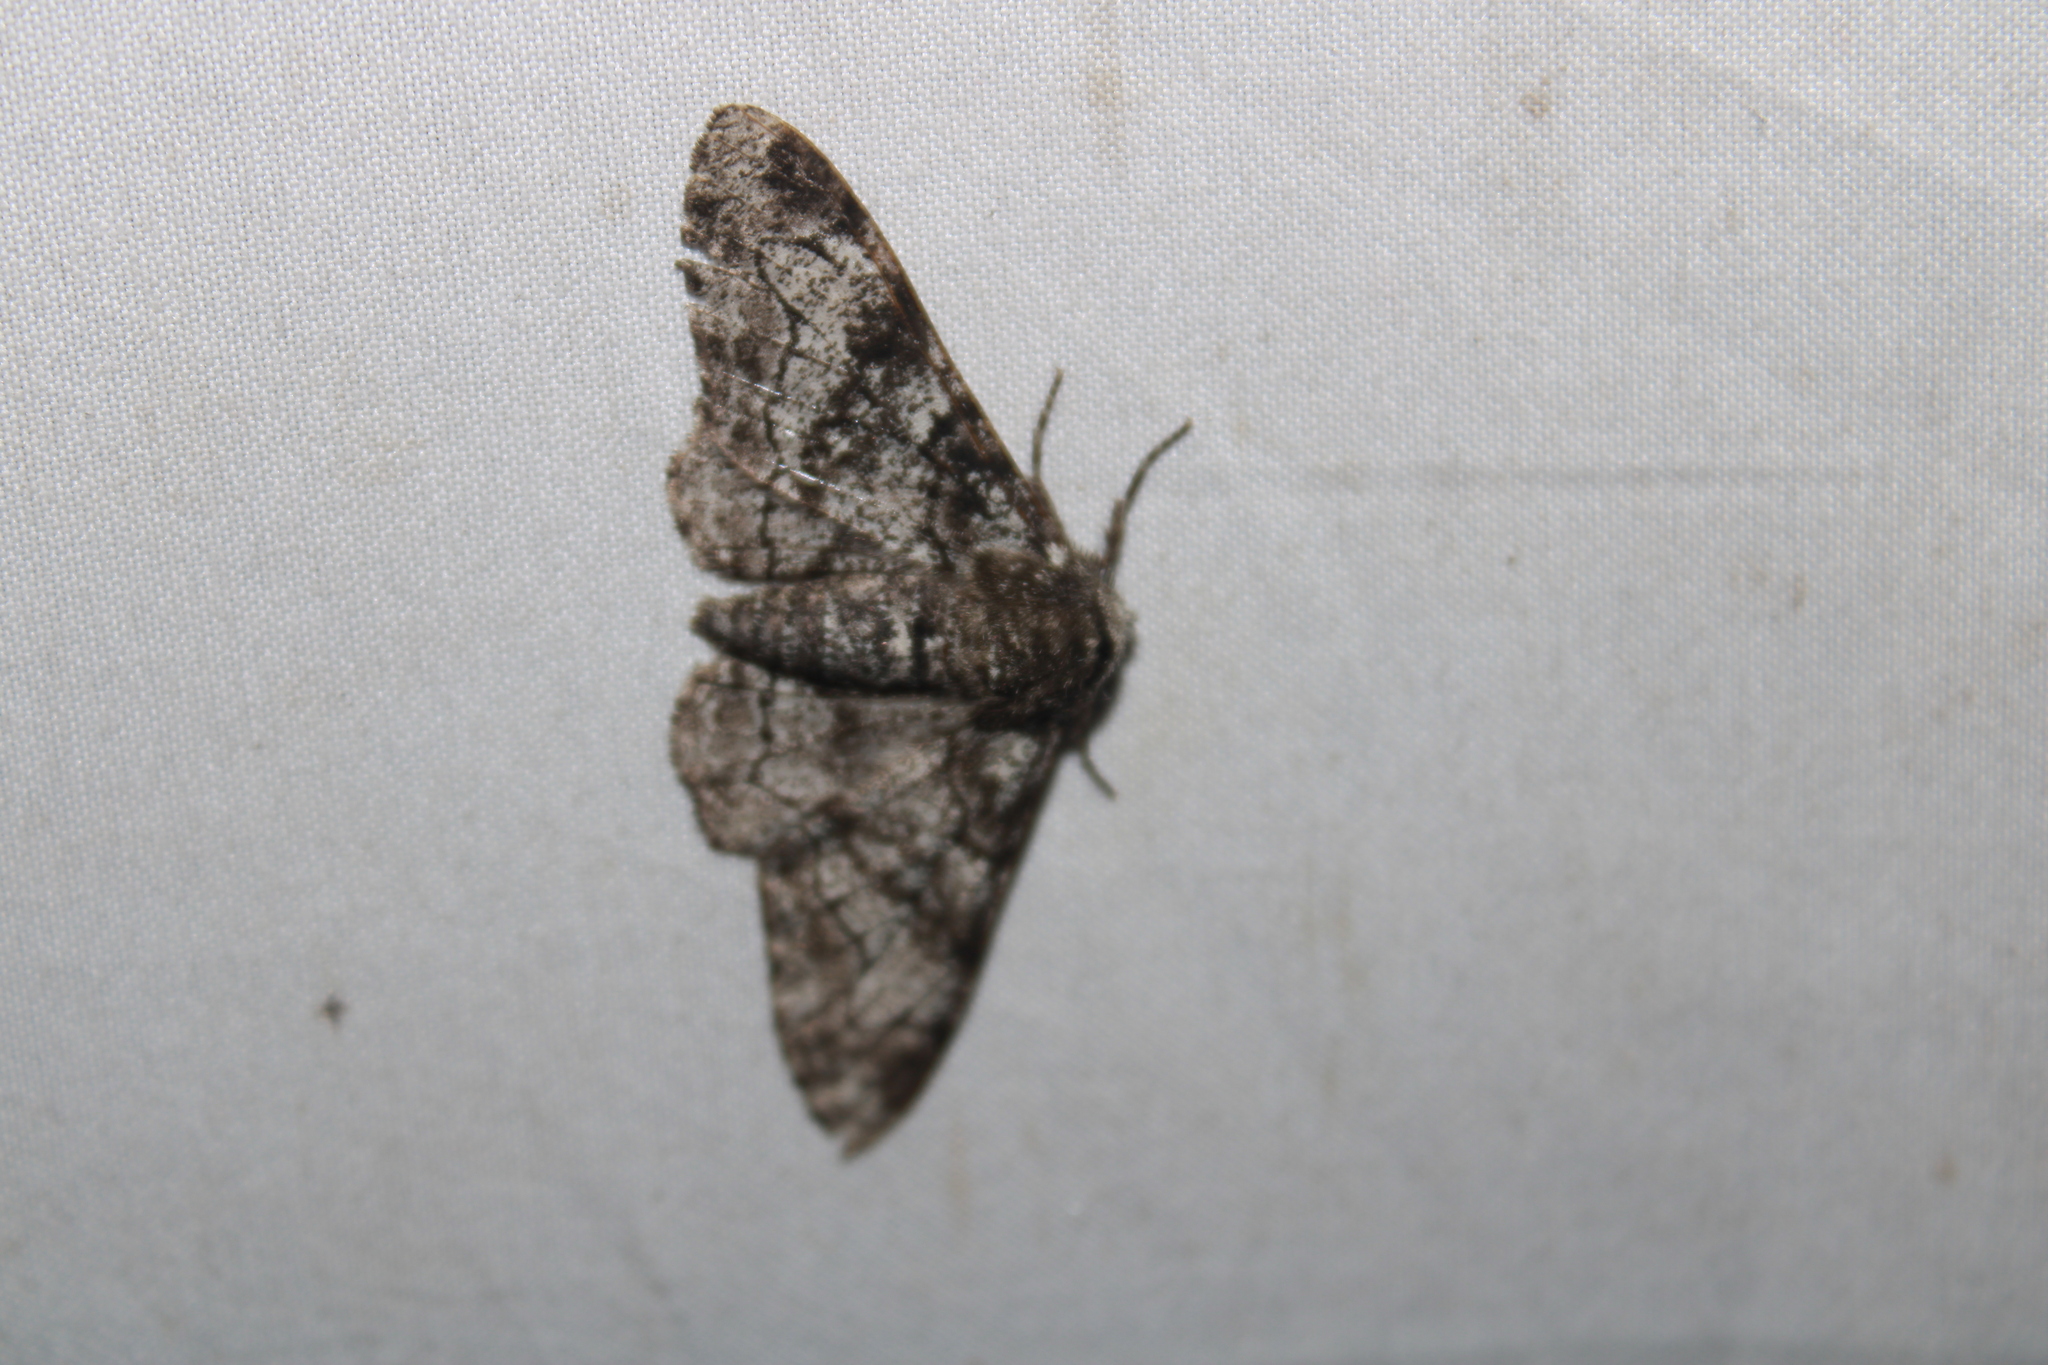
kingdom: Animalia
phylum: Arthropoda
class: Insecta
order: Lepidoptera
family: Geometridae
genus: Biston
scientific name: Biston betularia
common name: Peppered moth
